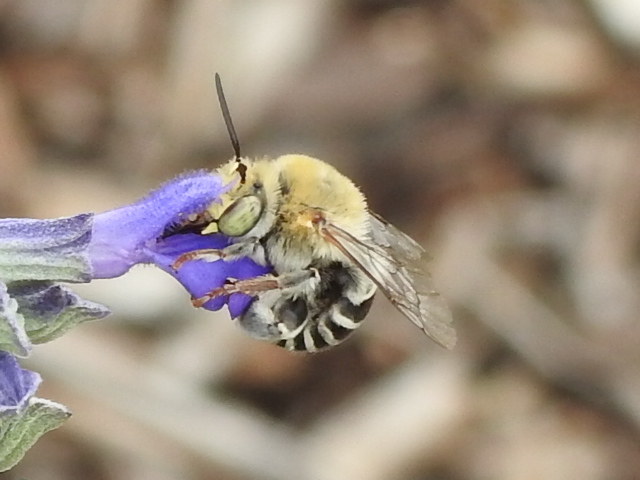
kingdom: Animalia
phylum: Arthropoda
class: Insecta
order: Hymenoptera
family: Apidae
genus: Anthophora
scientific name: Anthophora californica
